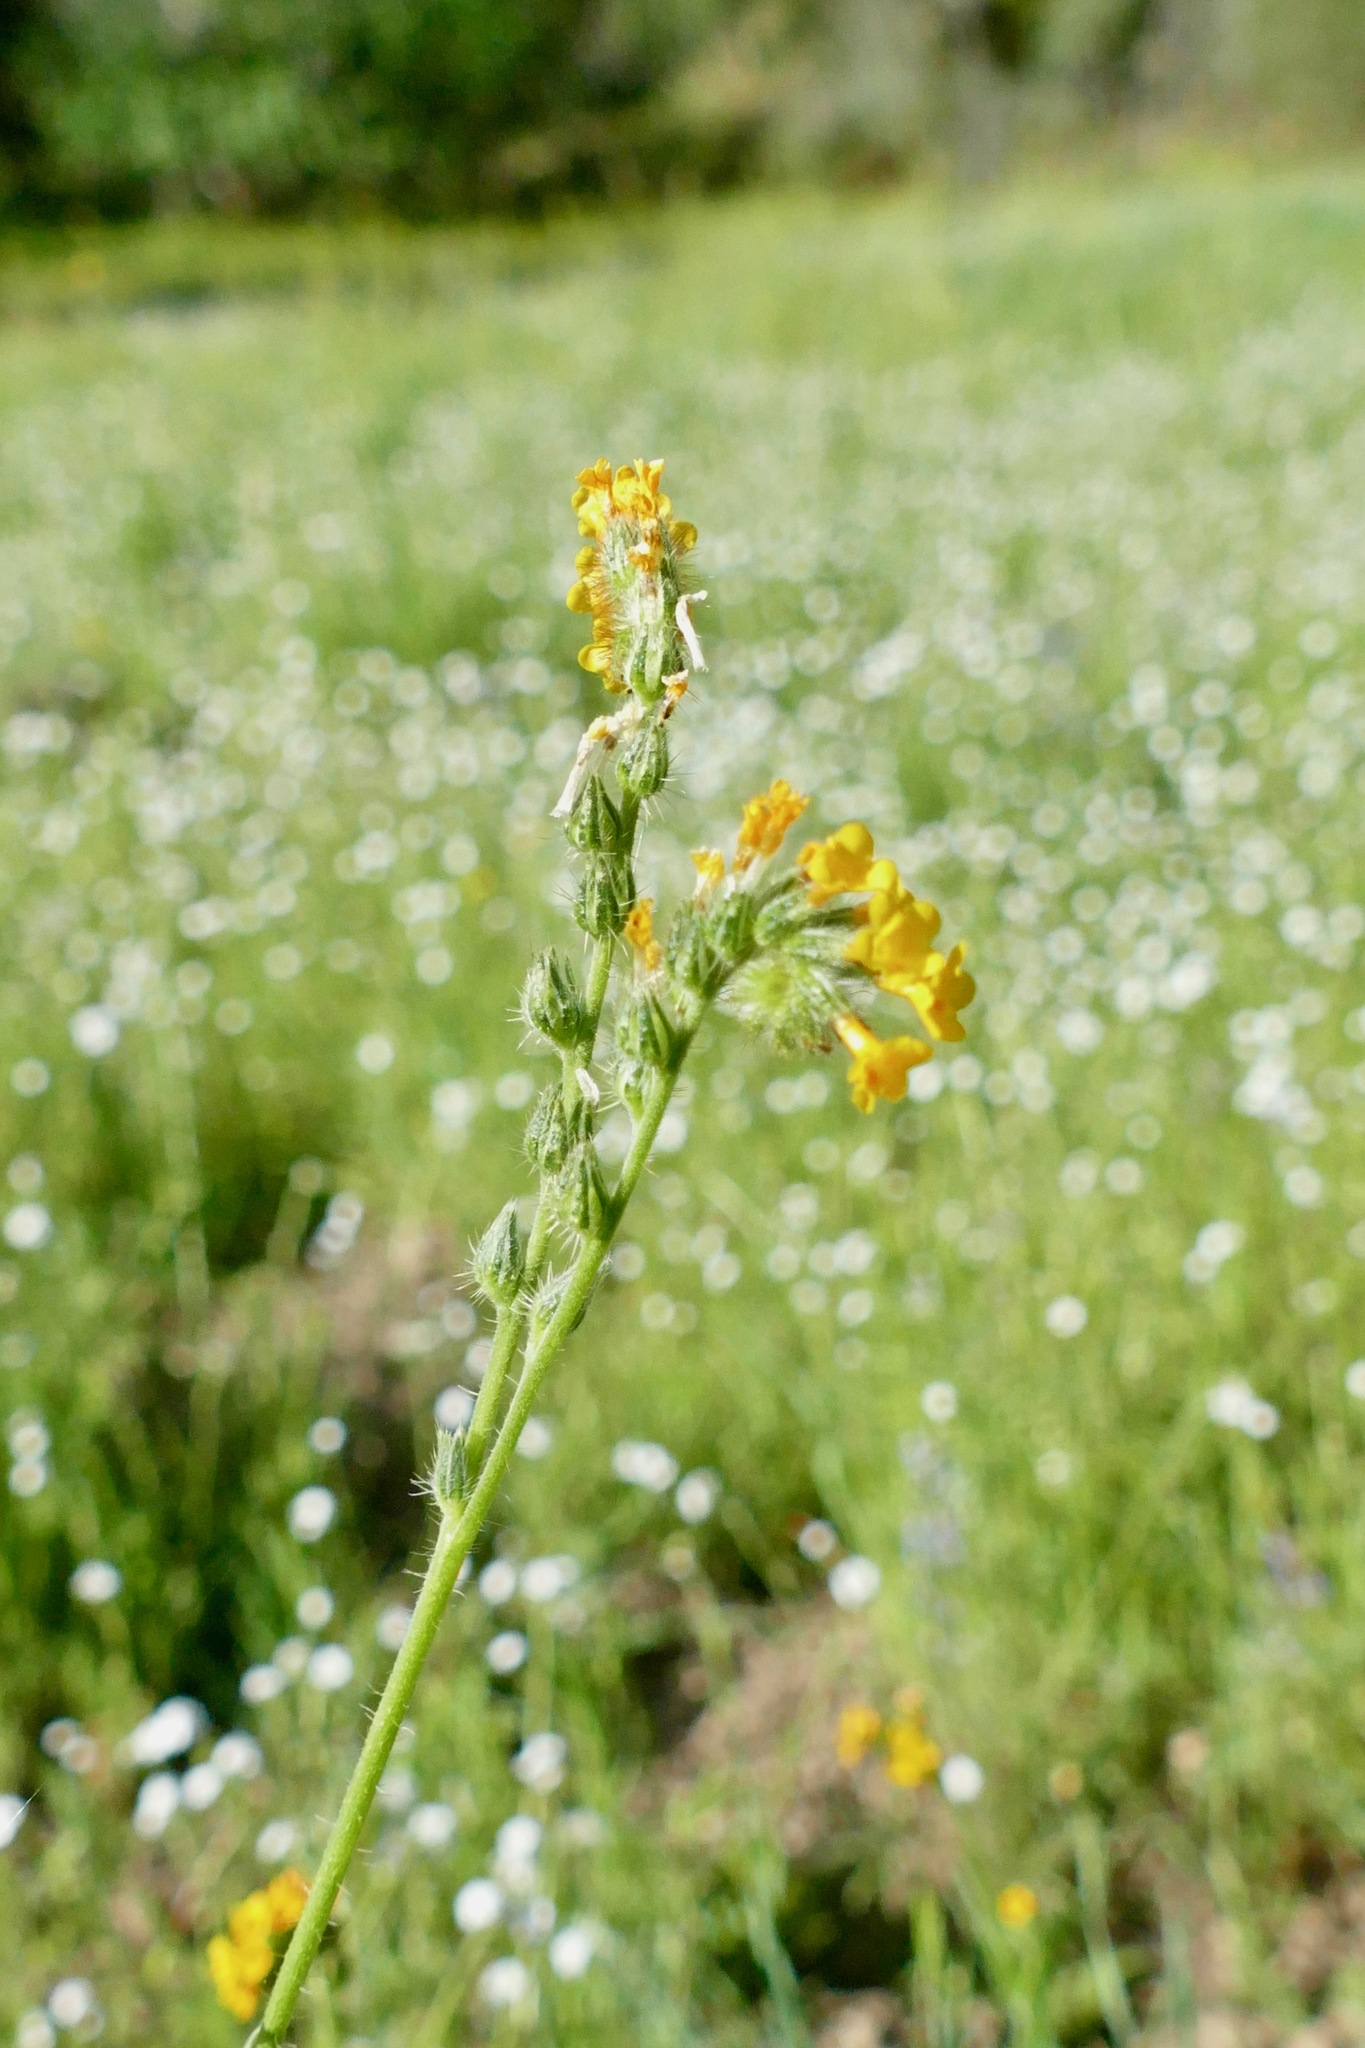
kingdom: Plantae
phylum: Tracheophyta
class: Magnoliopsida
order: Boraginales
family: Boraginaceae
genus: Amsinckia
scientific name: Amsinckia menziesii
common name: Menzies' fiddleneck
